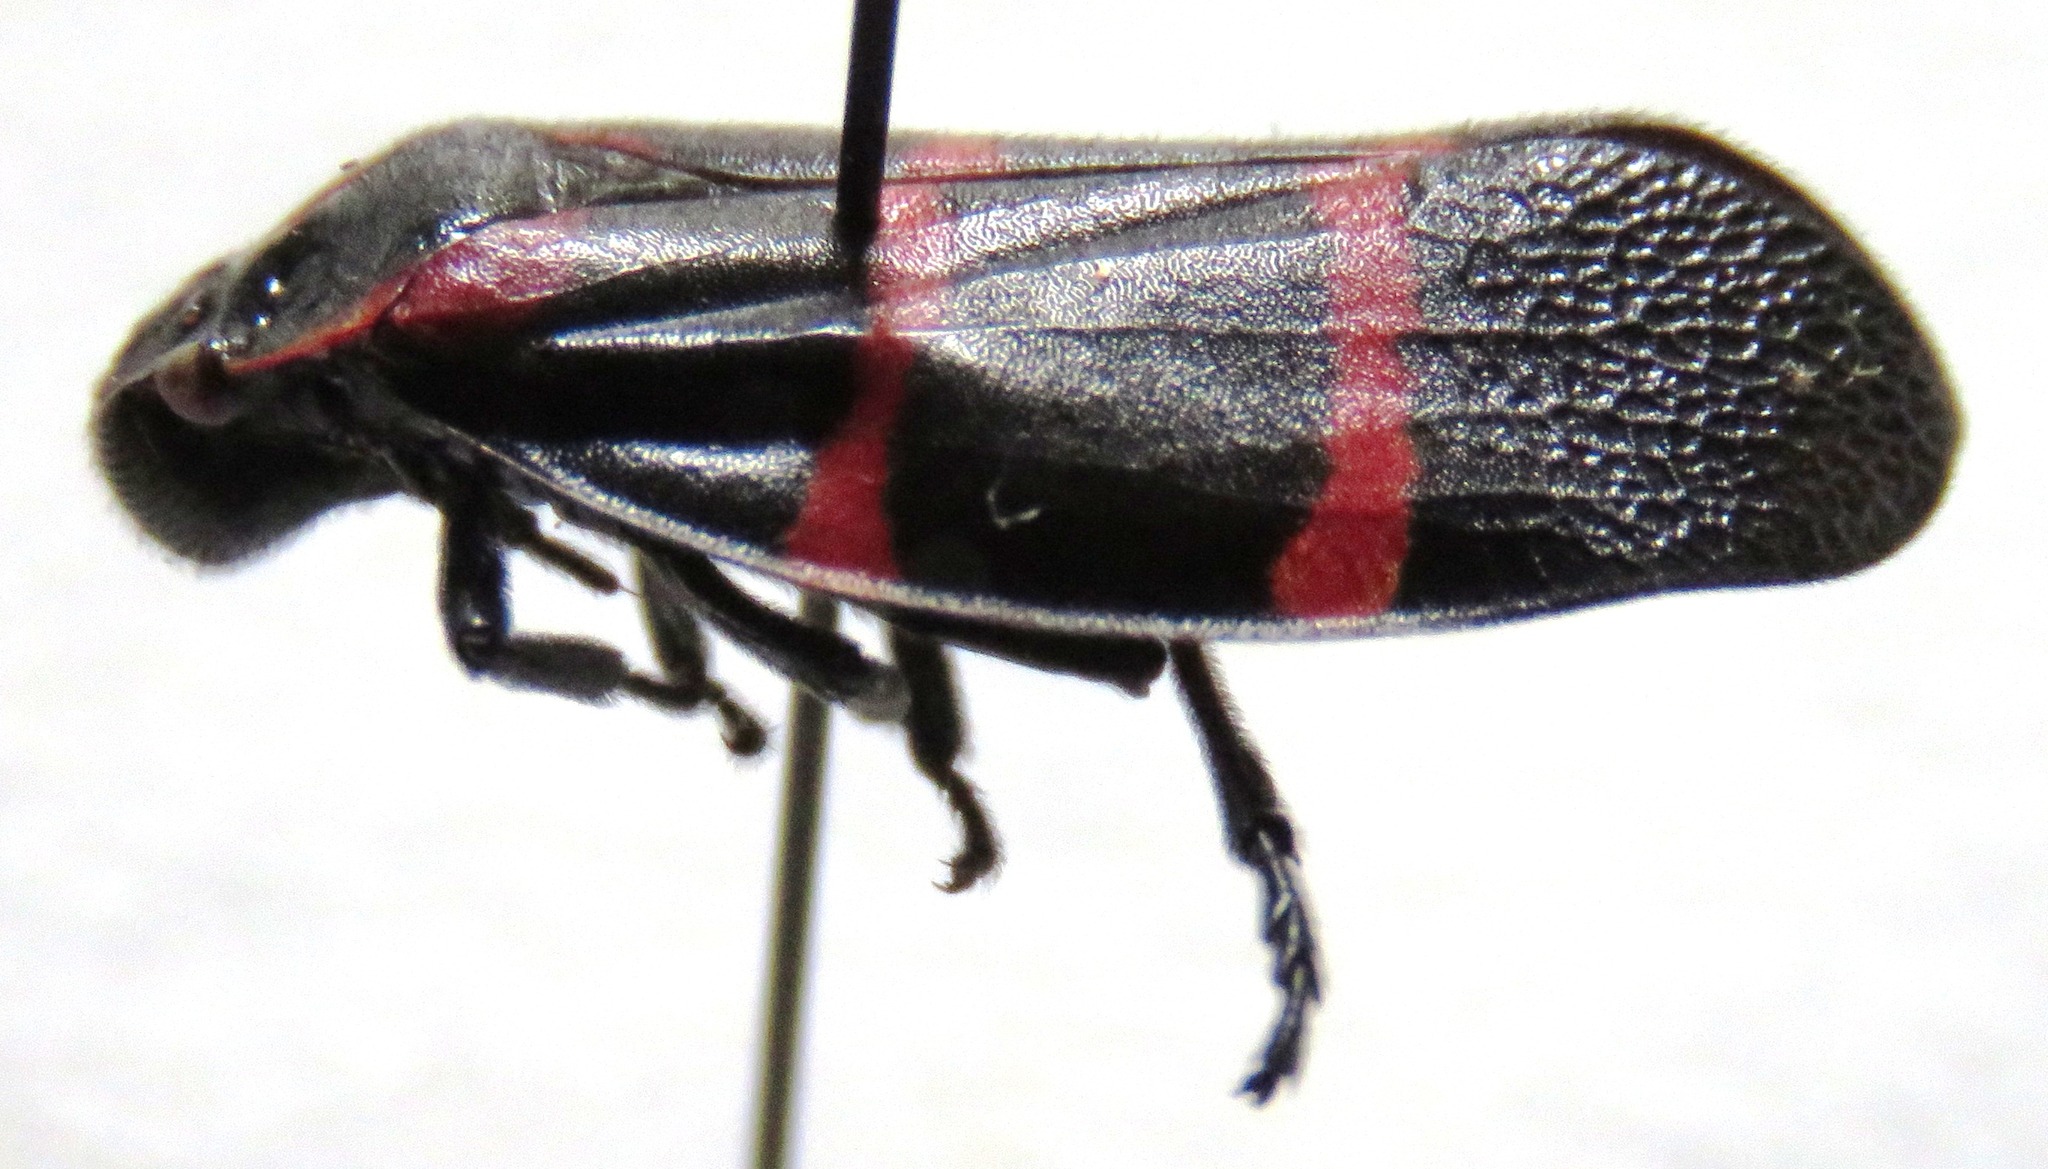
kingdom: Animalia
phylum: Arthropoda
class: Insecta
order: Hemiptera
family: Cercopidae
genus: Huaina
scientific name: Huaina inca
